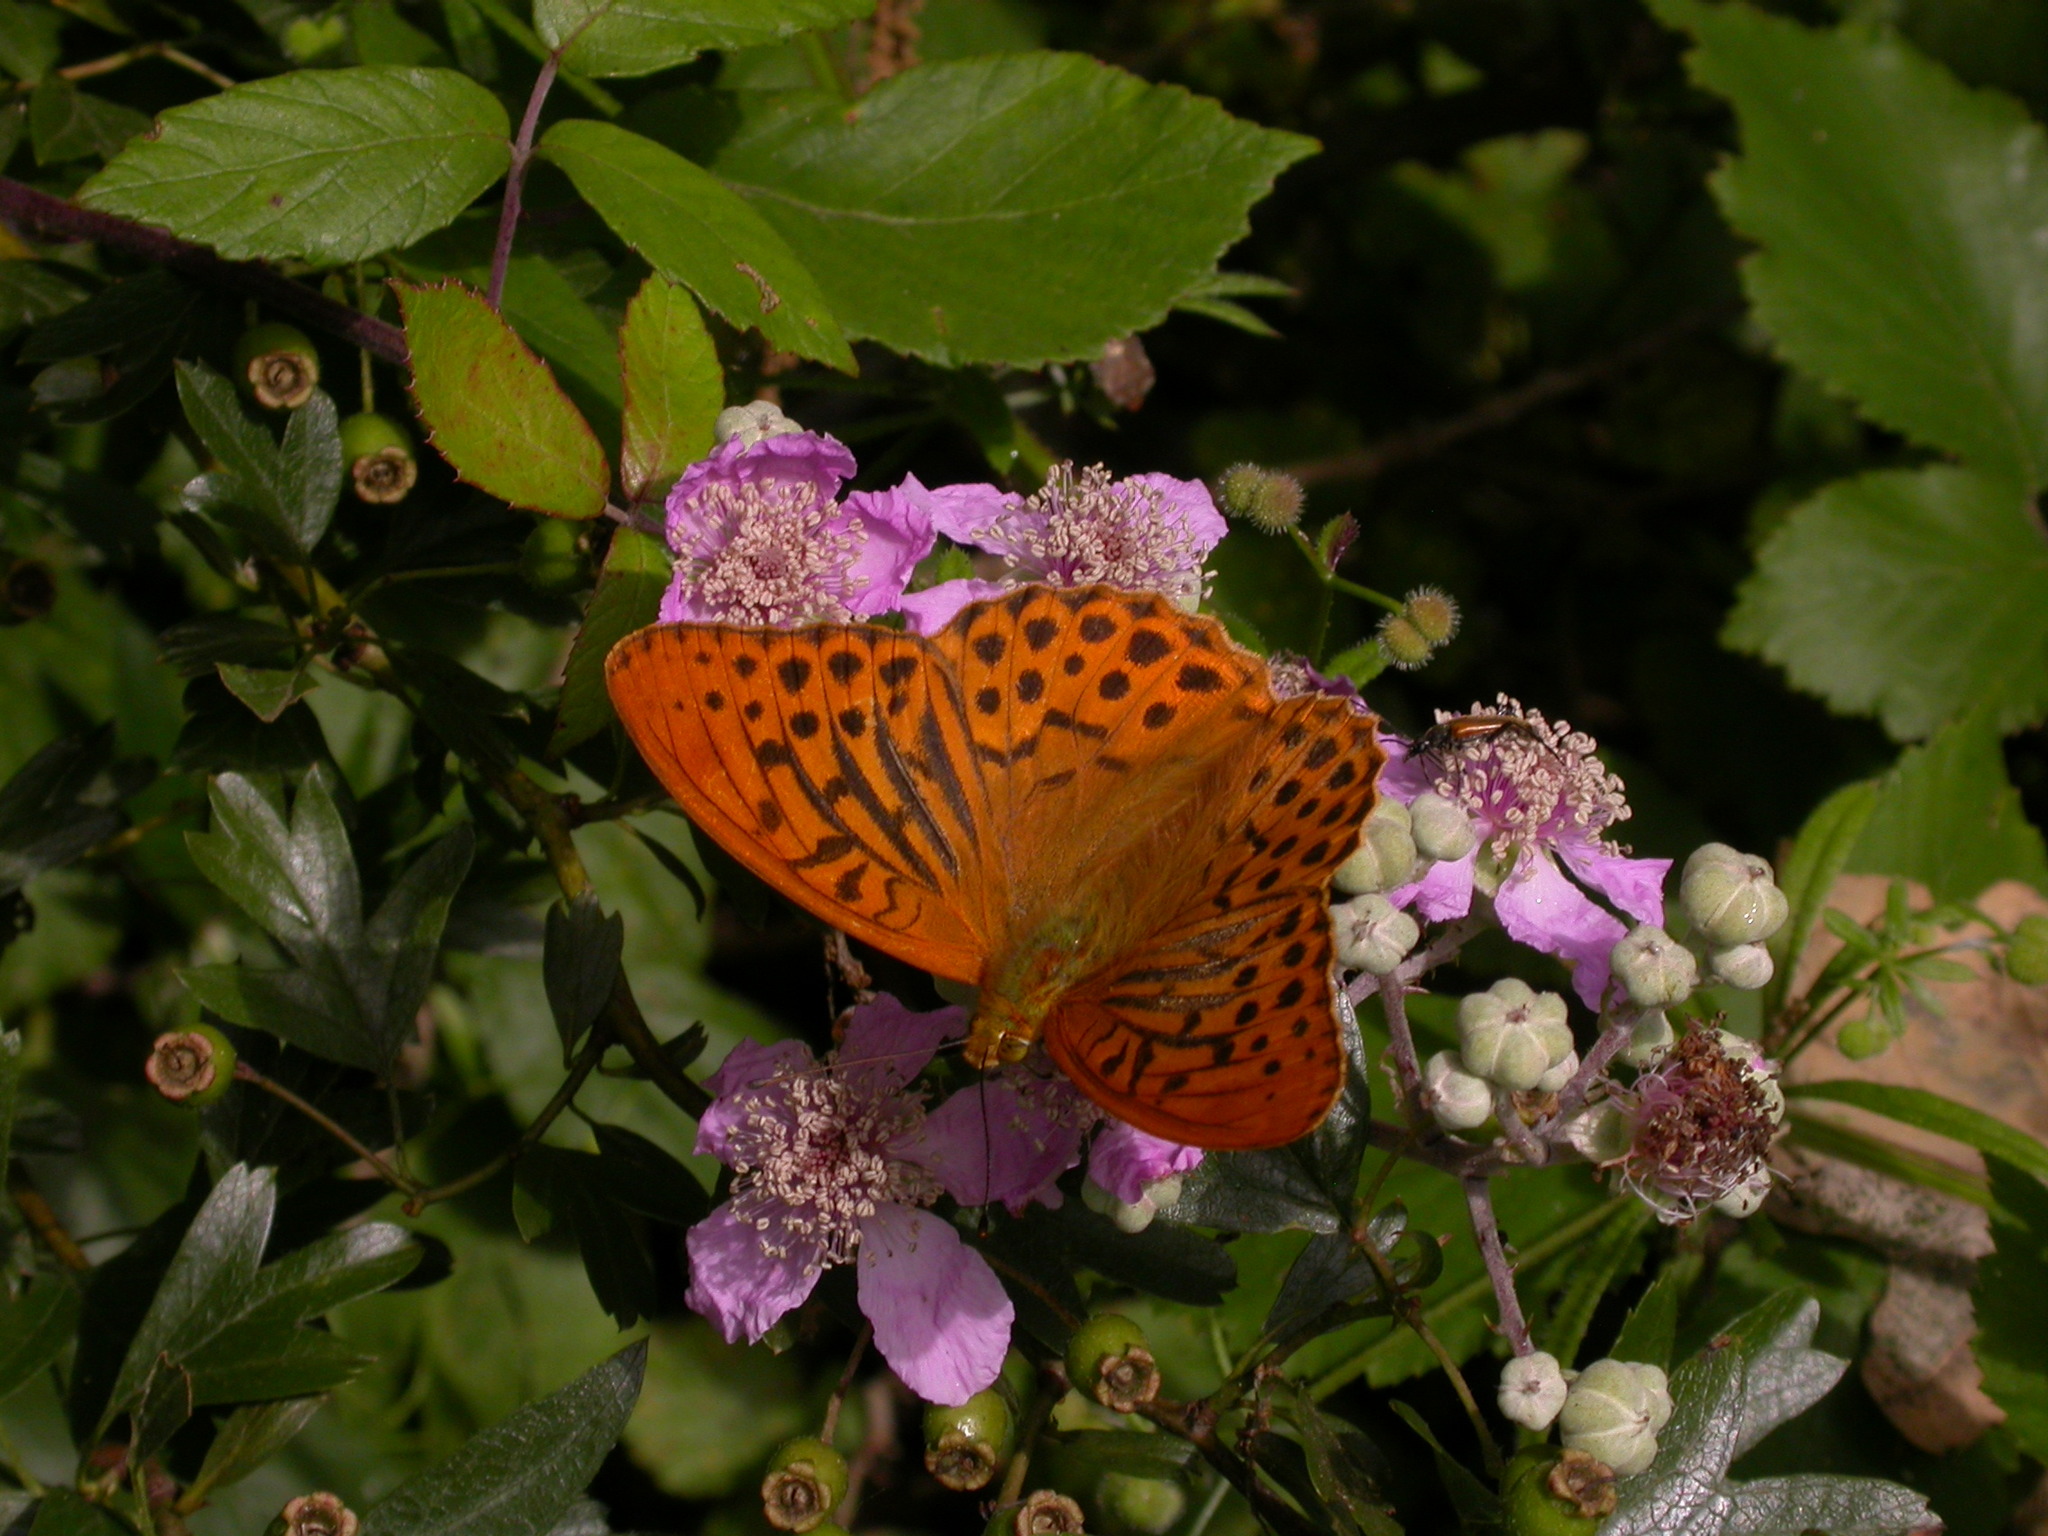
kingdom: Animalia
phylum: Arthropoda
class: Insecta
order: Lepidoptera
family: Nymphalidae
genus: Argynnis
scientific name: Argynnis paphia
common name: Silver-washed fritillary
